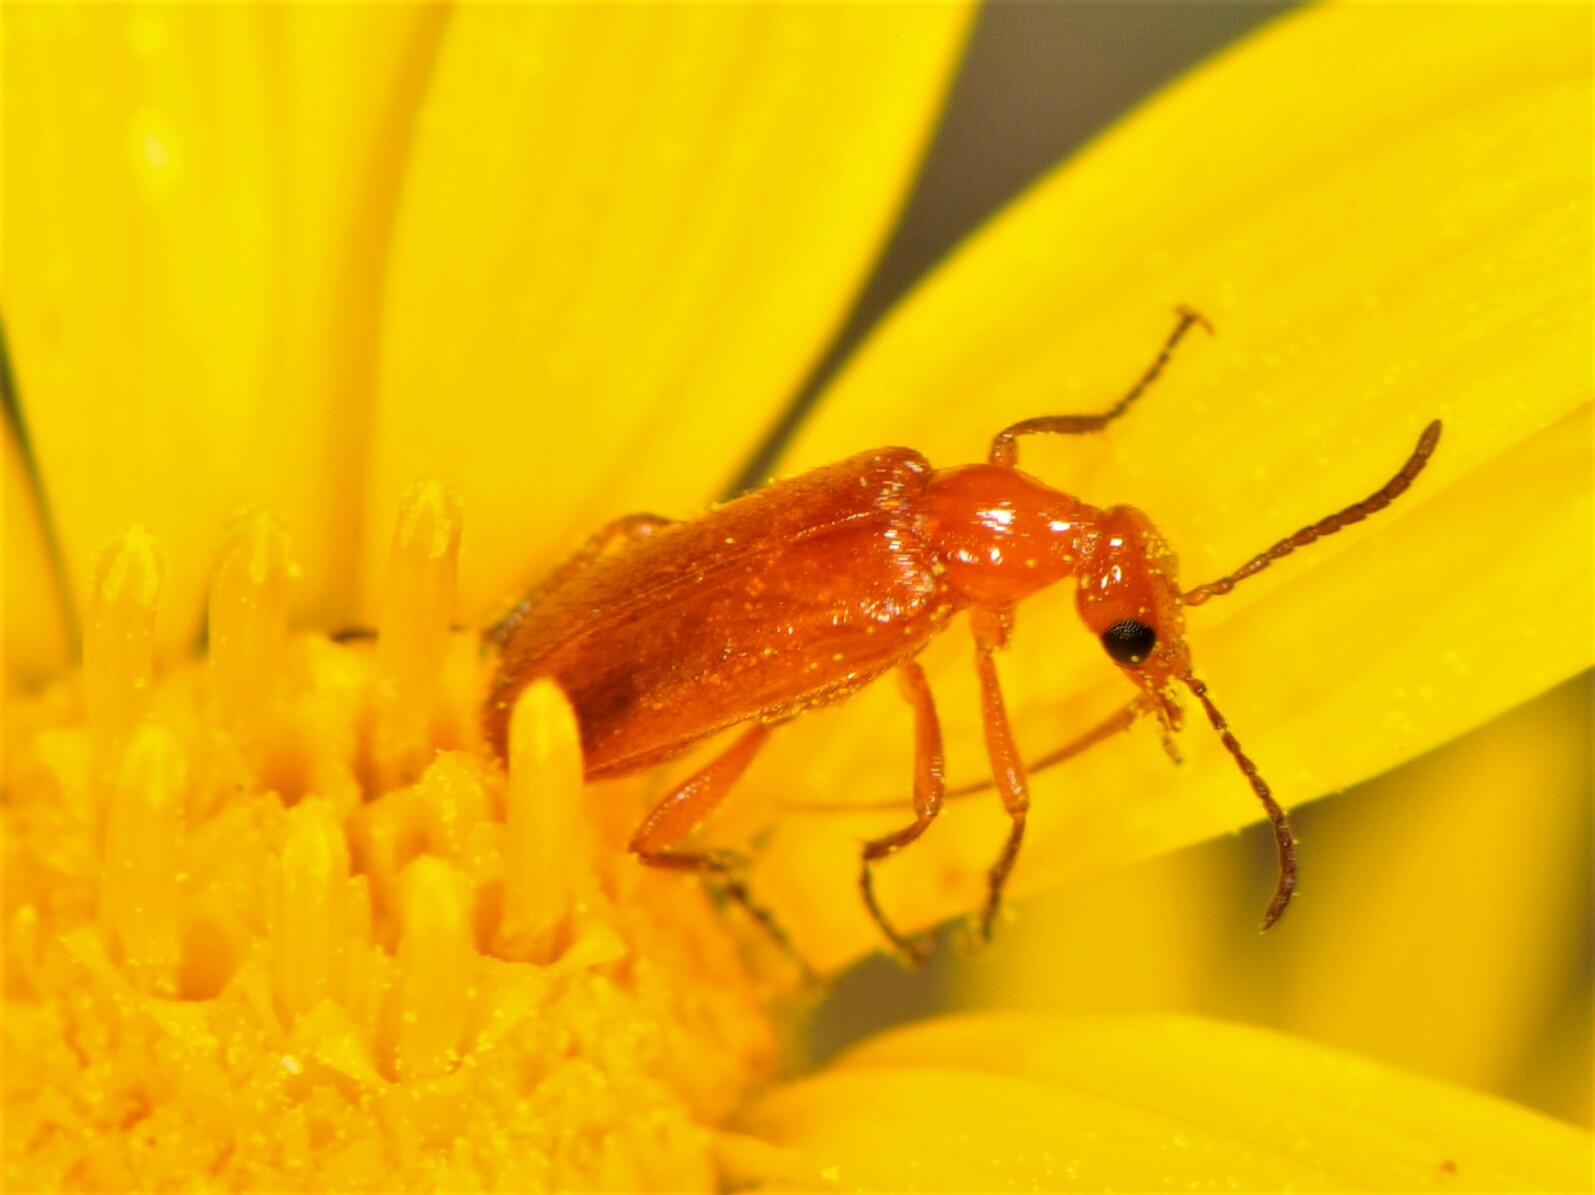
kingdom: Animalia
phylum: Arthropoda
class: Insecta
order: Coleoptera
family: Meloidae
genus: Gnathium
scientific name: Gnathium nitidum
